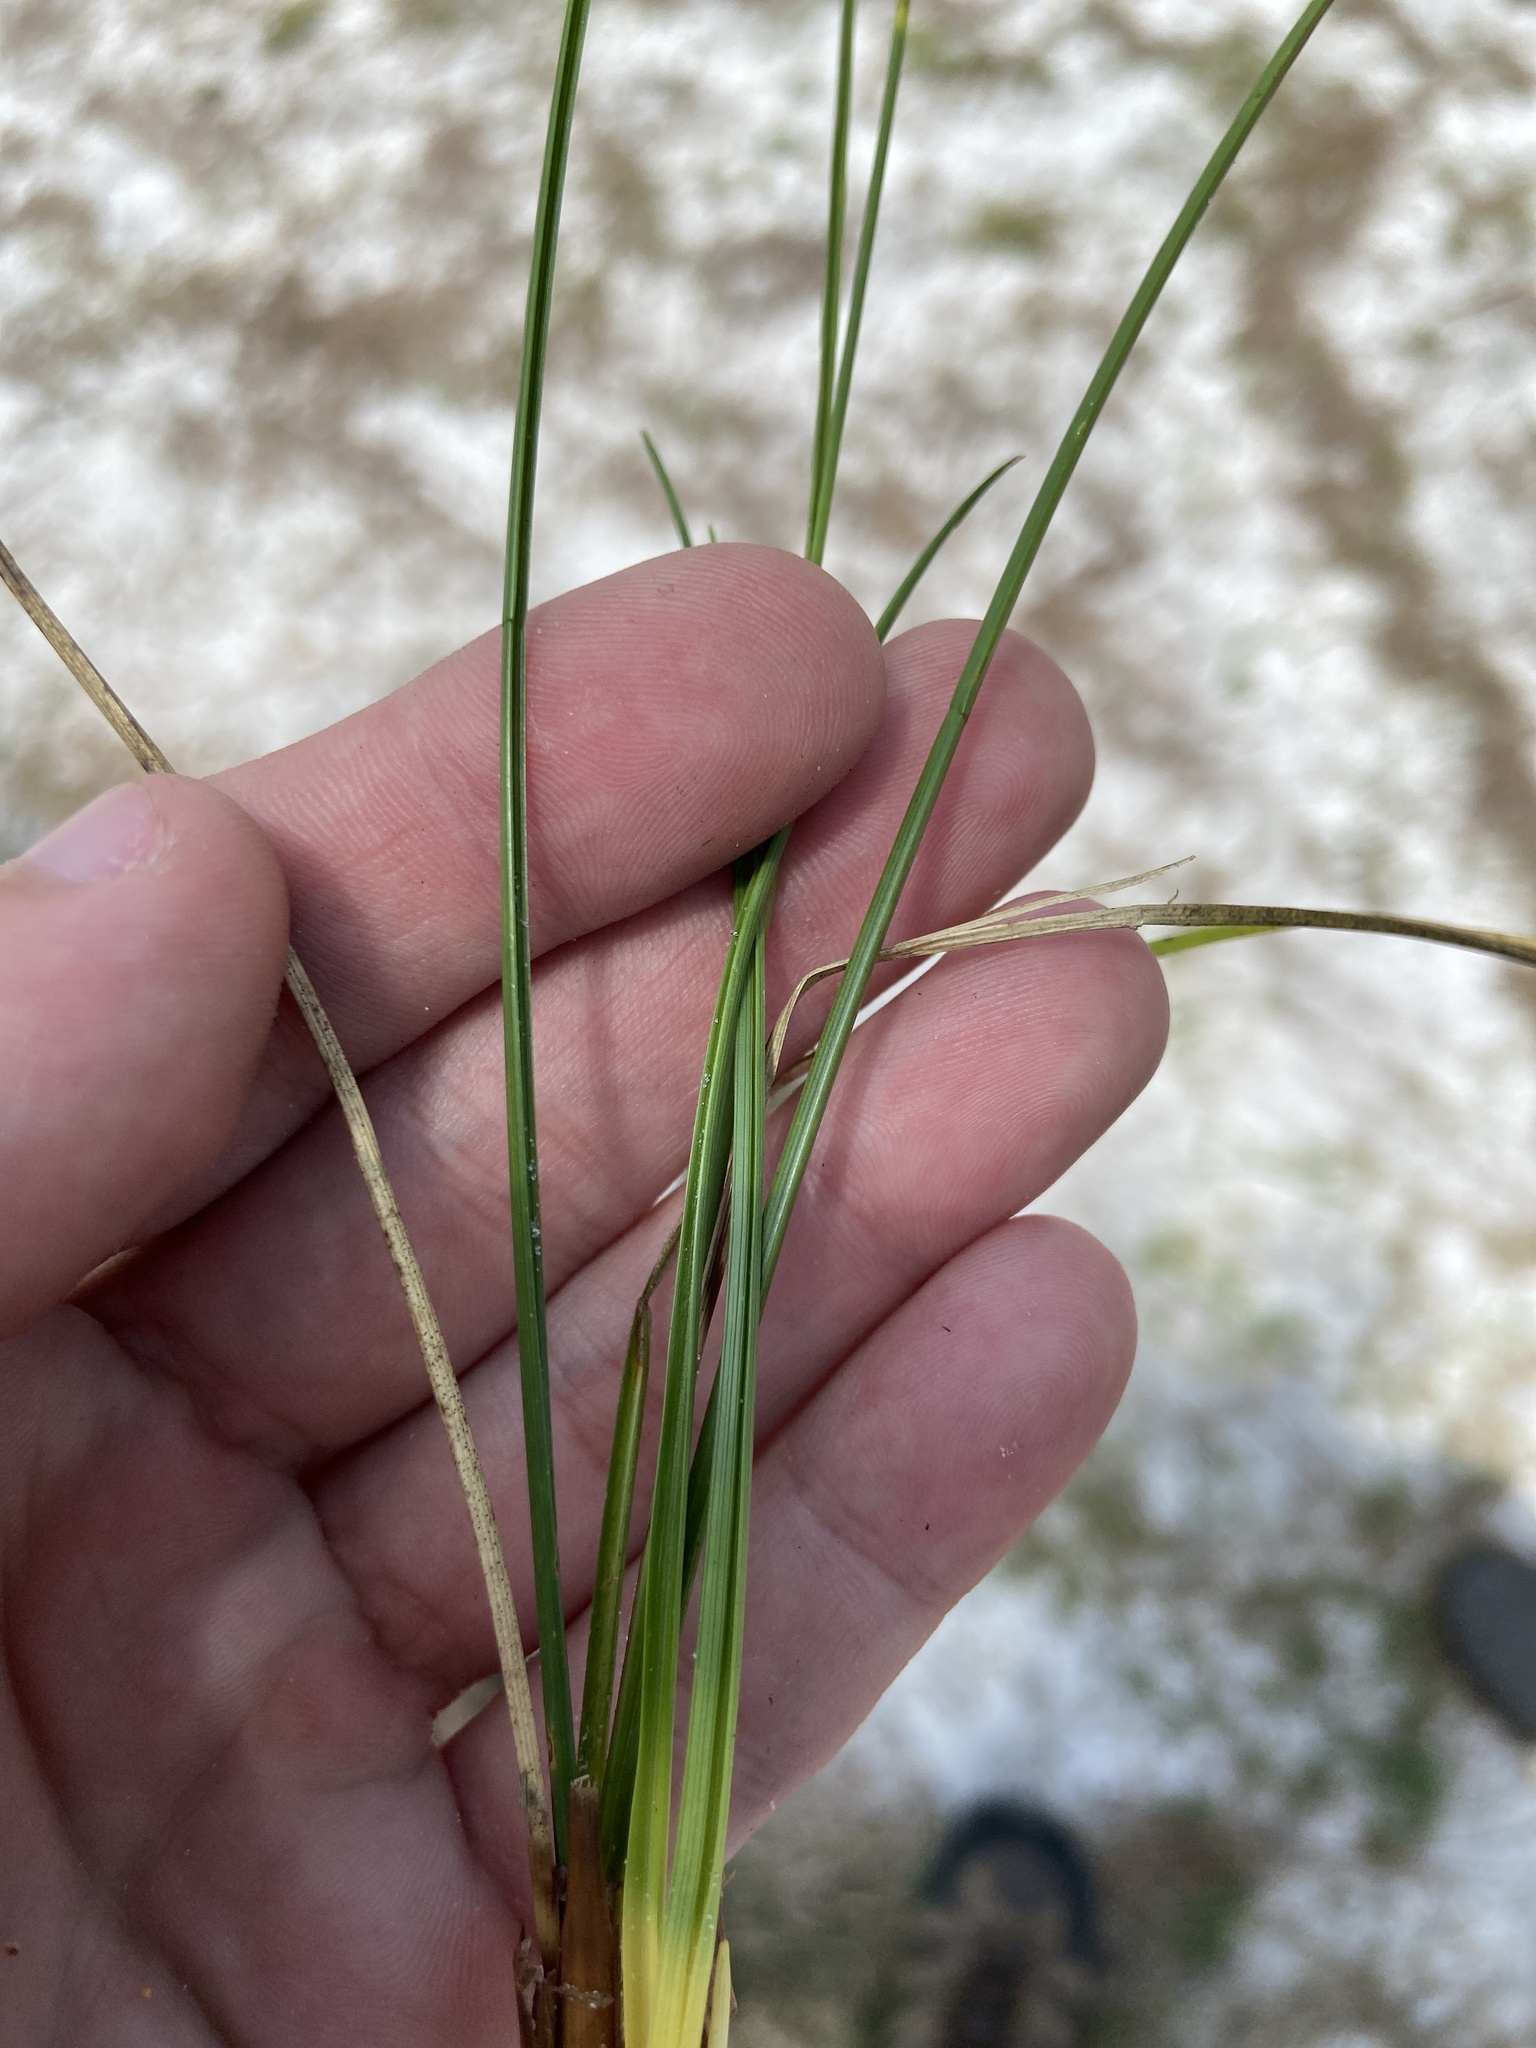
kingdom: Plantae
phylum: Tracheophyta
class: Liliopsida
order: Poales
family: Cyperaceae
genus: Rhynchospora
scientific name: Rhynchospora intermedia
